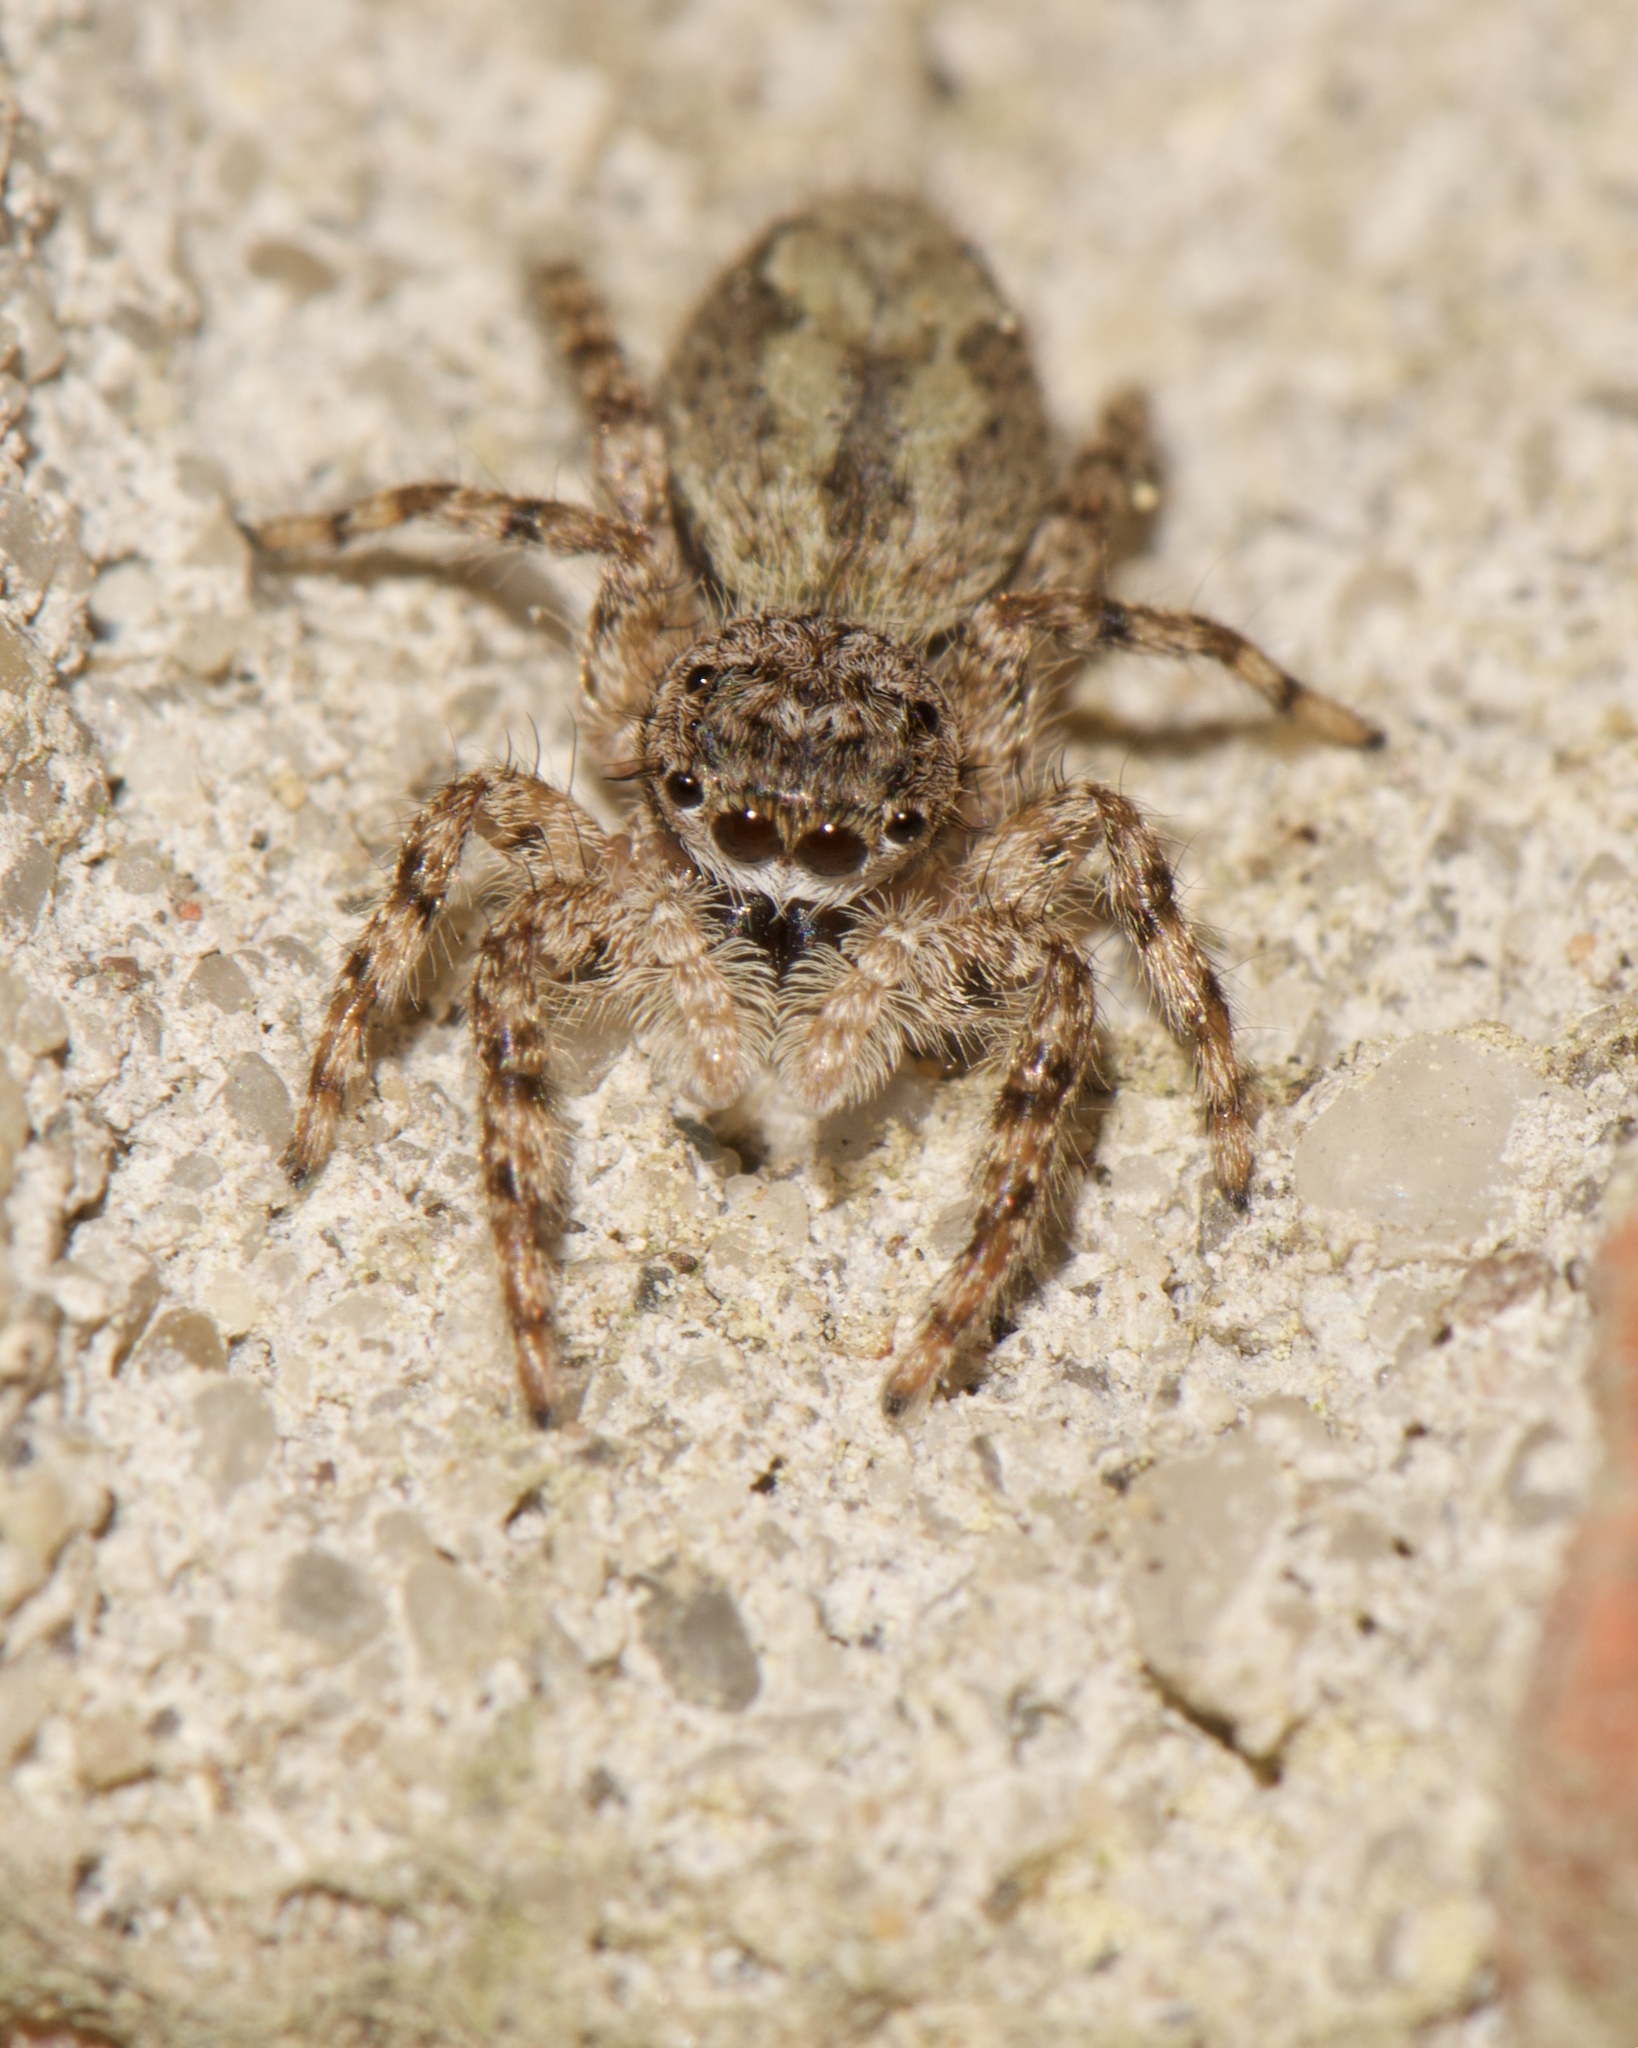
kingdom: Animalia
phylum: Arthropoda
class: Arachnida
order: Araneae
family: Salticidae
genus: Platycryptus
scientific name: Platycryptus undatus
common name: Tan jumping spider
